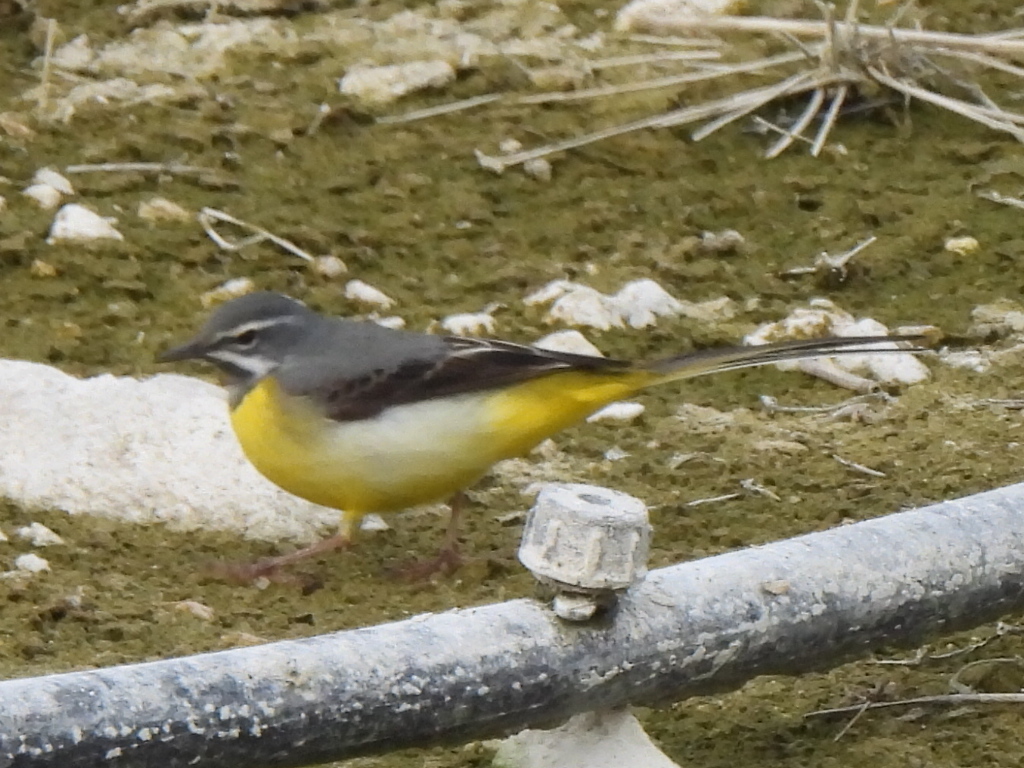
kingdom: Animalia
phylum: Chordata
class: Aves
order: Passeriformes
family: Motacillidae
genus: Motacilla
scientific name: Motacilla cinerea
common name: Grey wagtail
